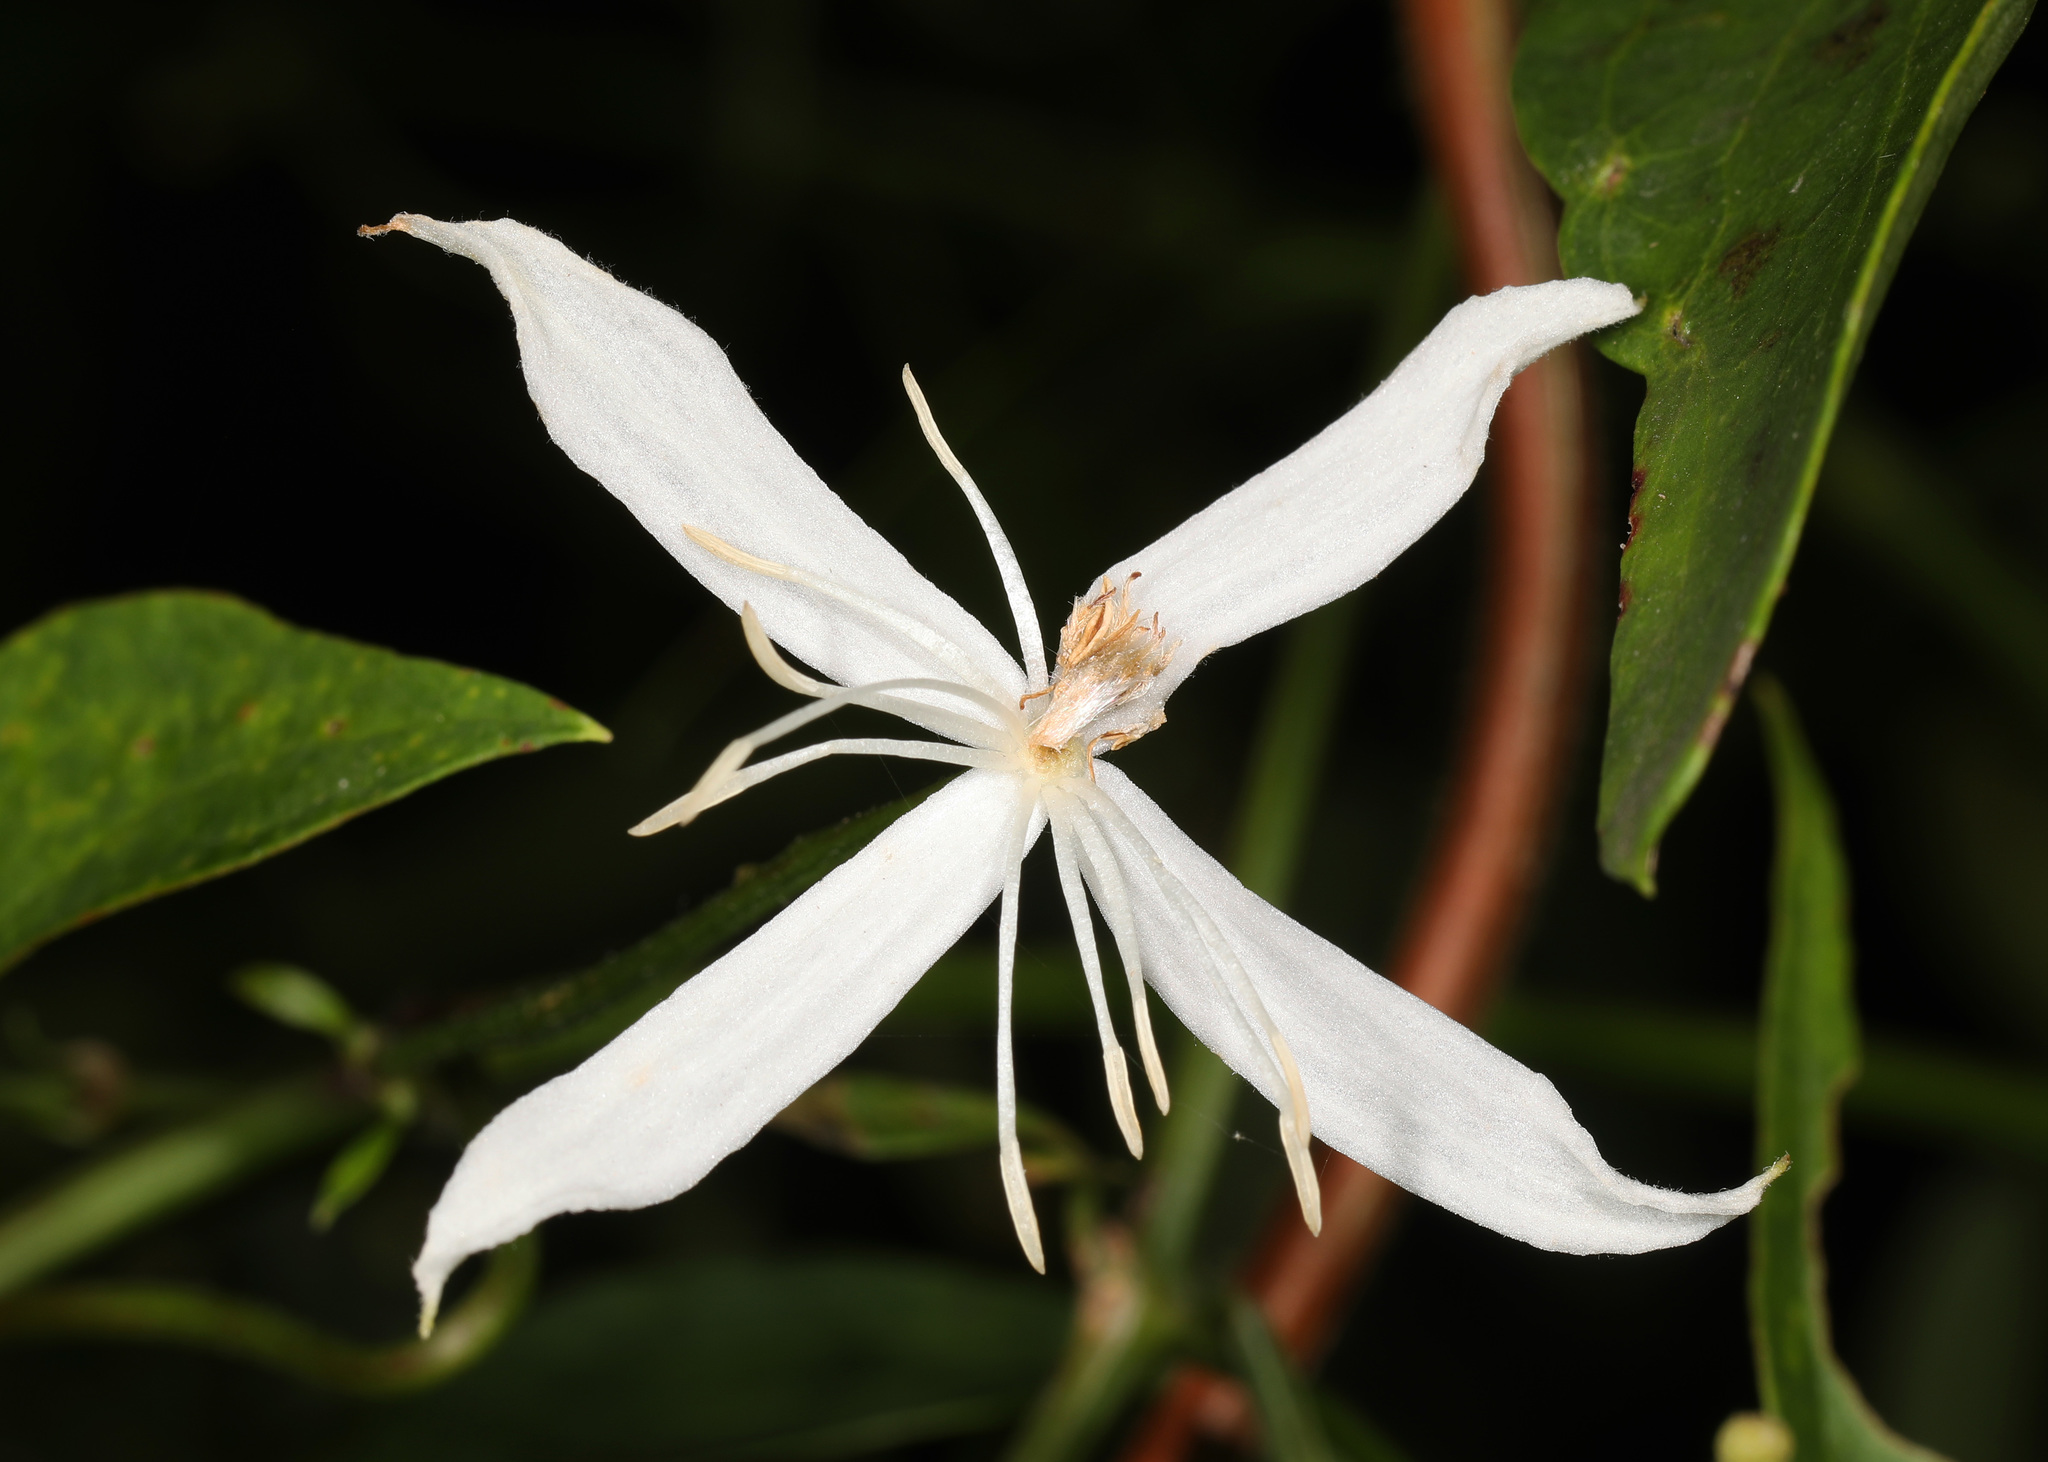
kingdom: Plantae
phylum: Tracheophyta
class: Magnoliopsida
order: Ranunculales
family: Ranunculaceae
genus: Clematis
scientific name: Clematis terniflora
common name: Sweet autumn clematis
